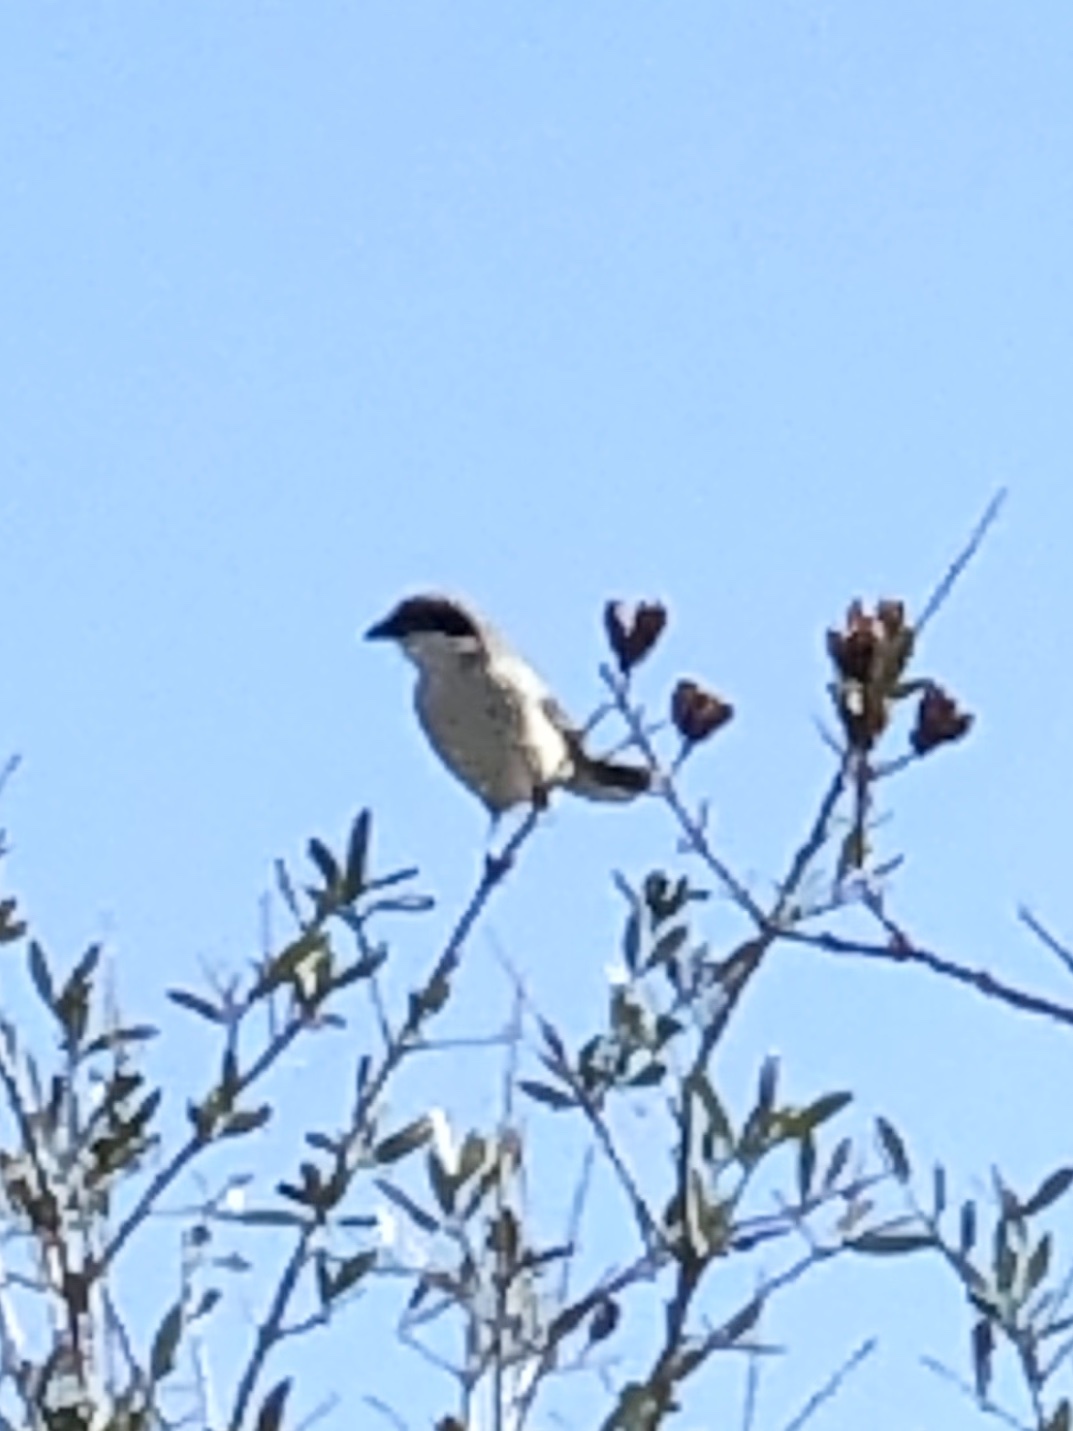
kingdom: Animalia
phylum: Chordata
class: Aves
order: Passeriformes
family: Laniidae
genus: Lanius
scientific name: Lanius ludovicianus
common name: Loggerhead shrike
